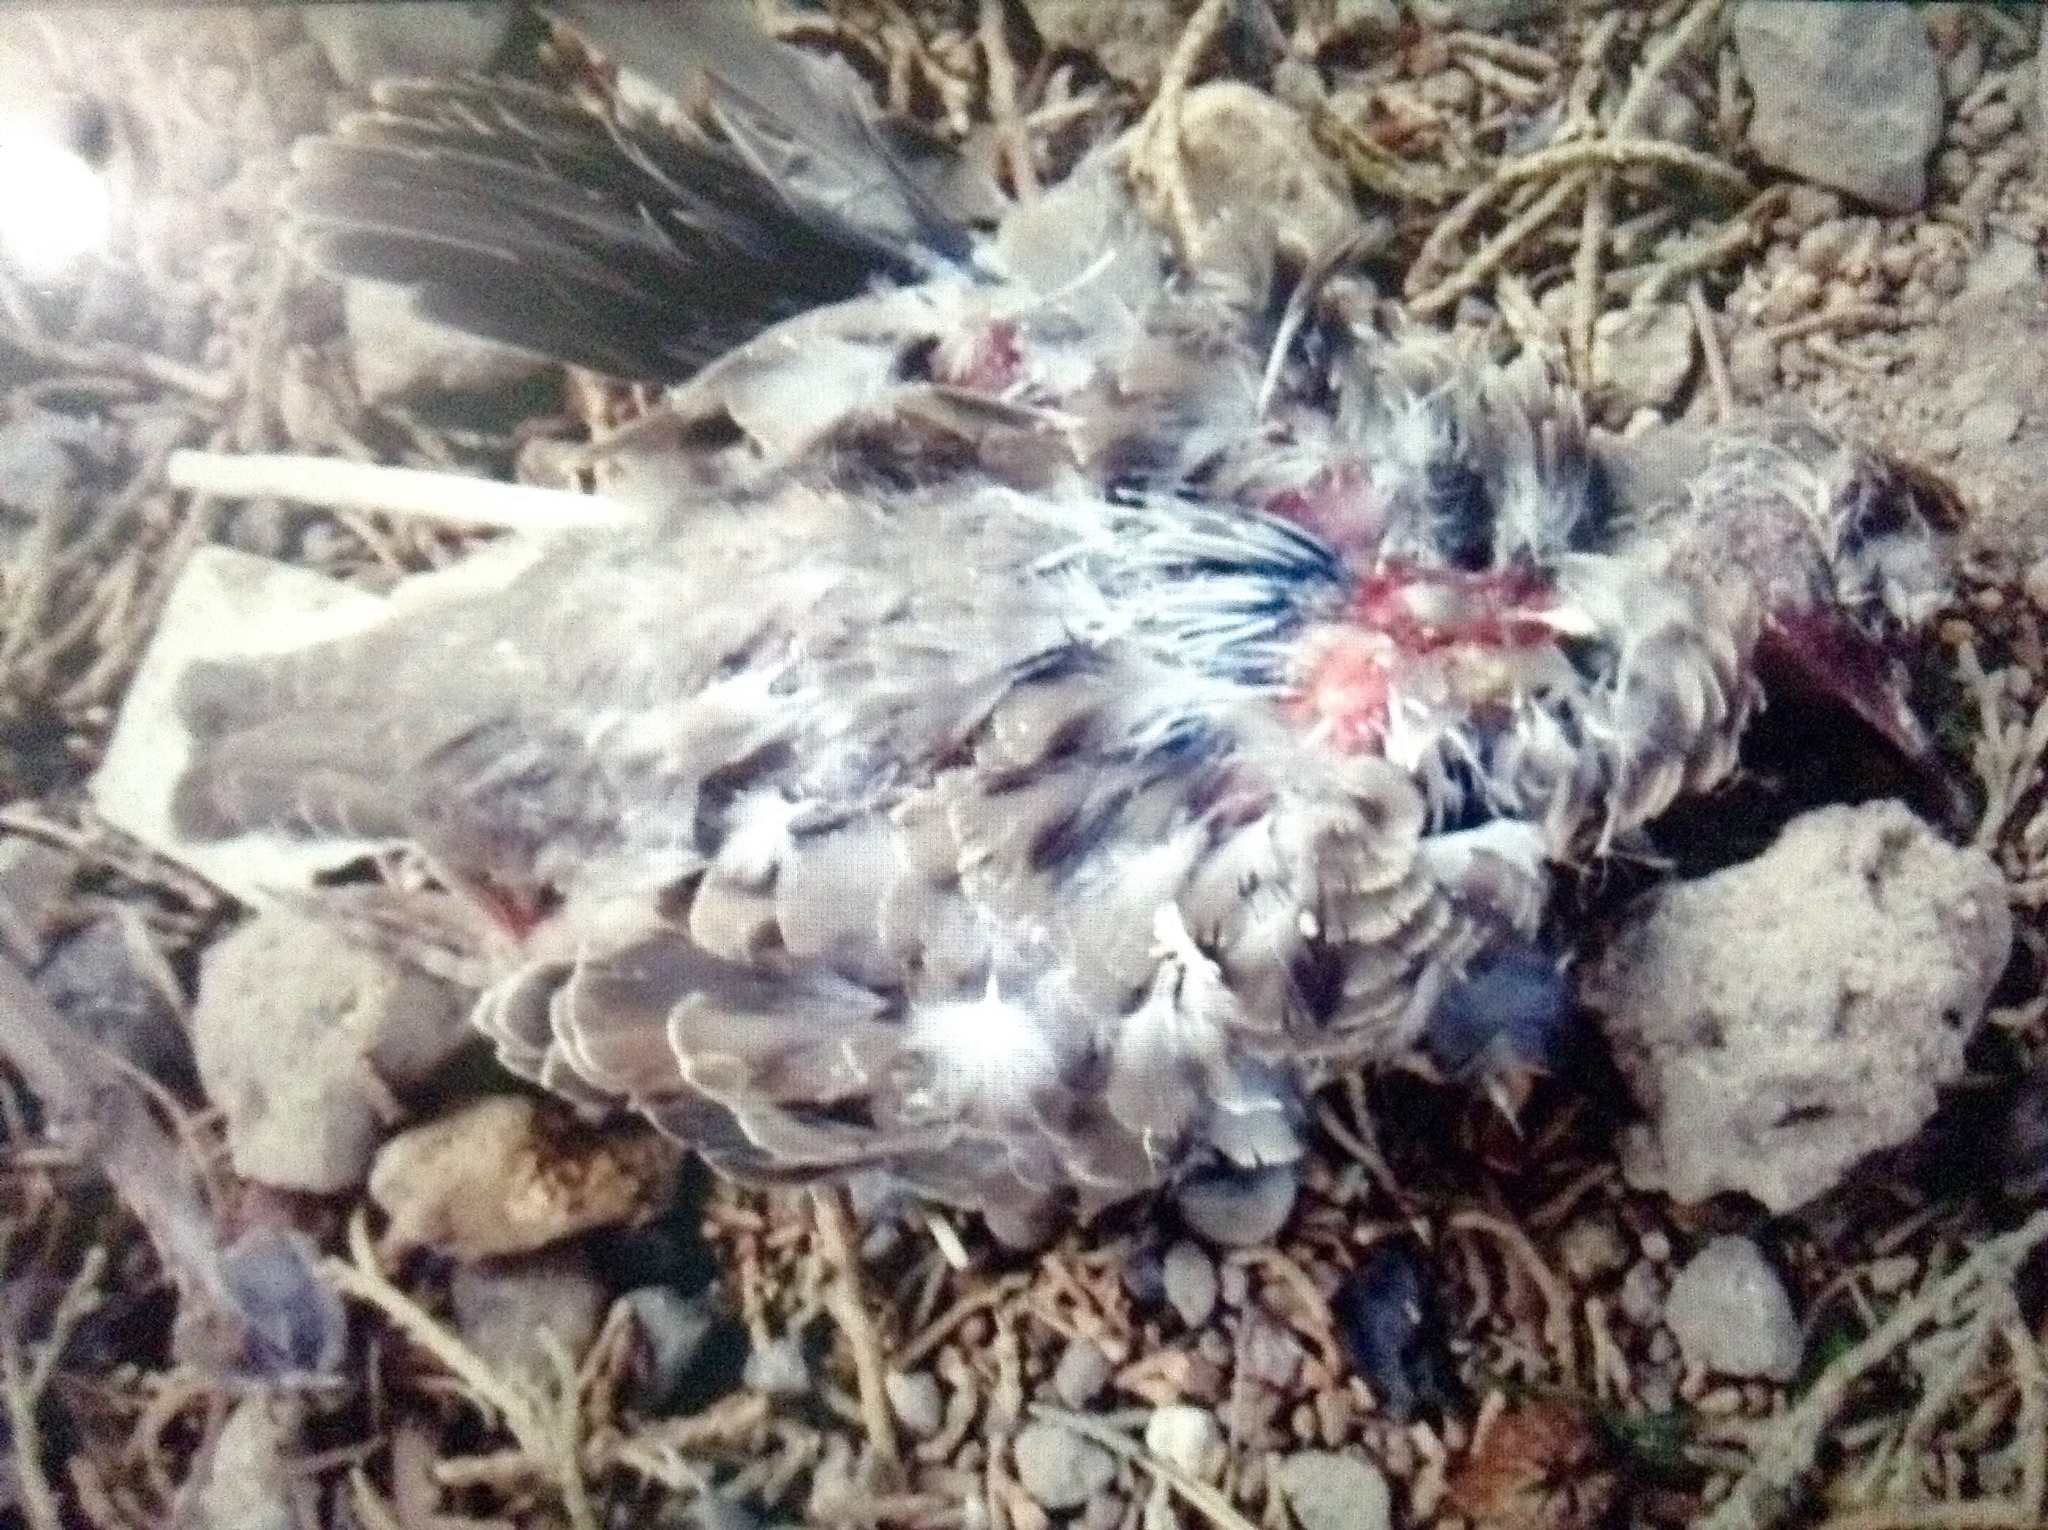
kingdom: Animalia
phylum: Chordata
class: Aves
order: Columbiformes
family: Columbidae
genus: Zenaida
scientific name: Zenaida macroura
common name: Mourning dove
